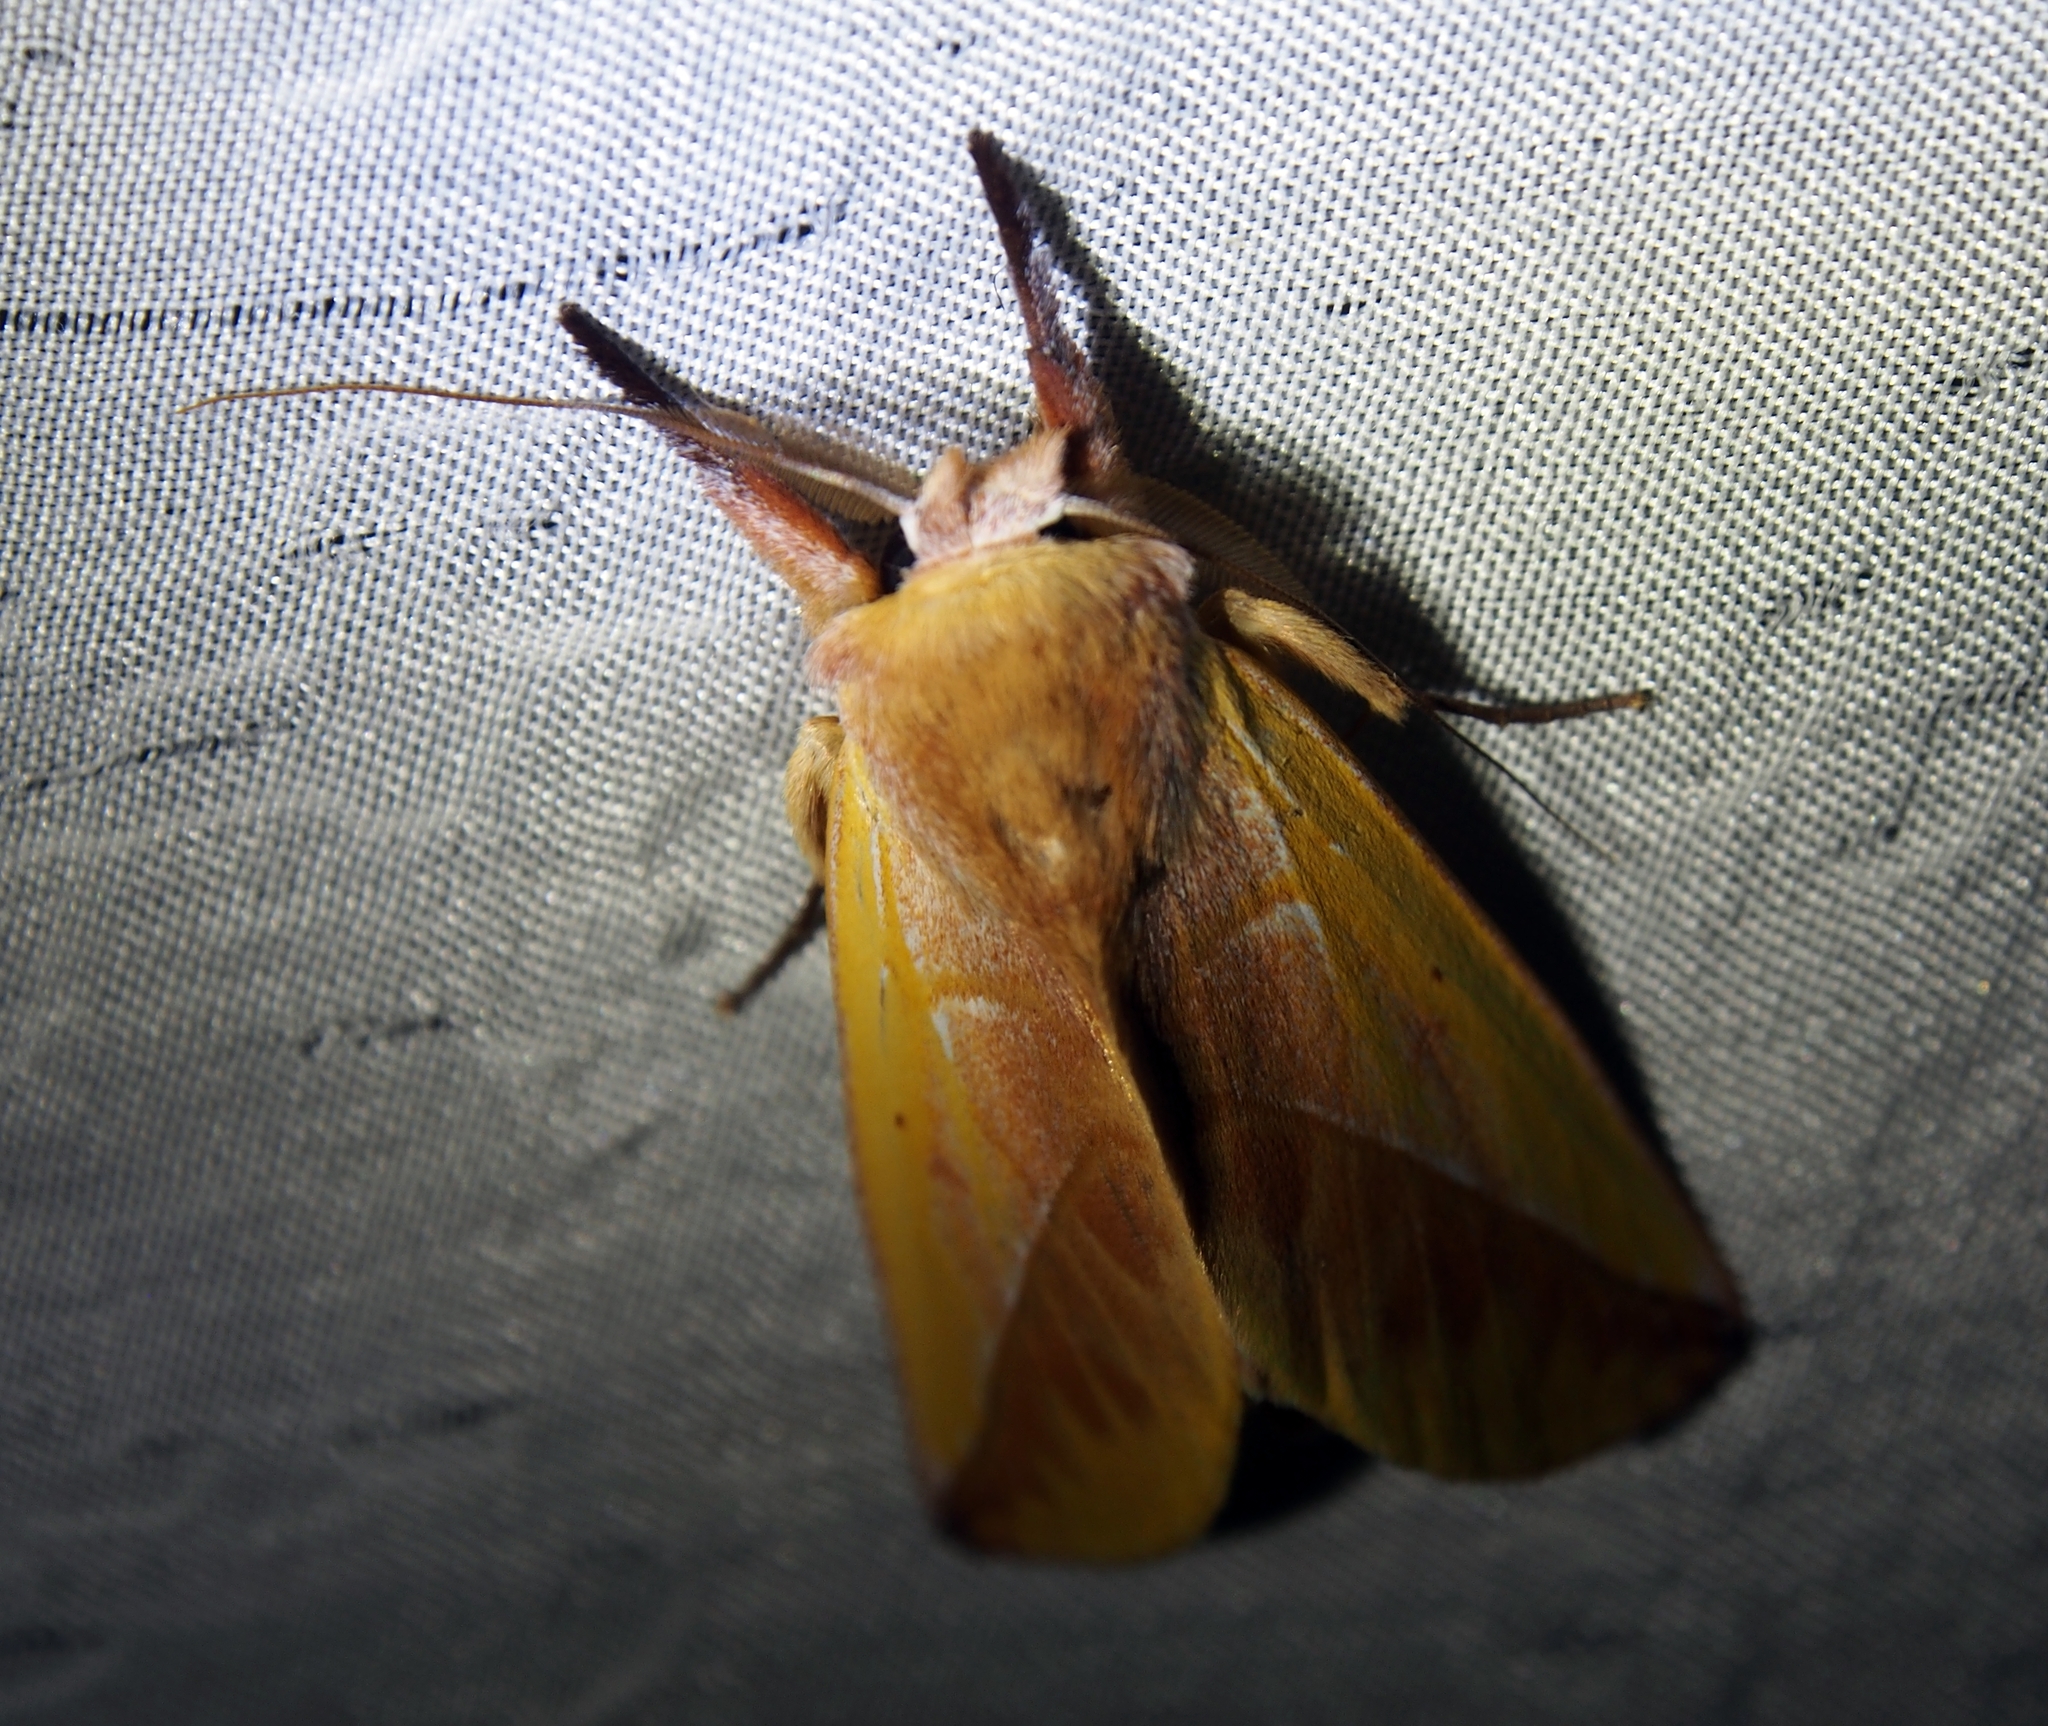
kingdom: Animalia
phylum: Arthropoda
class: Insecta
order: Lepidoptera
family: Notodontidae
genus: Hemiceras
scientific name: Hemiceras flava
